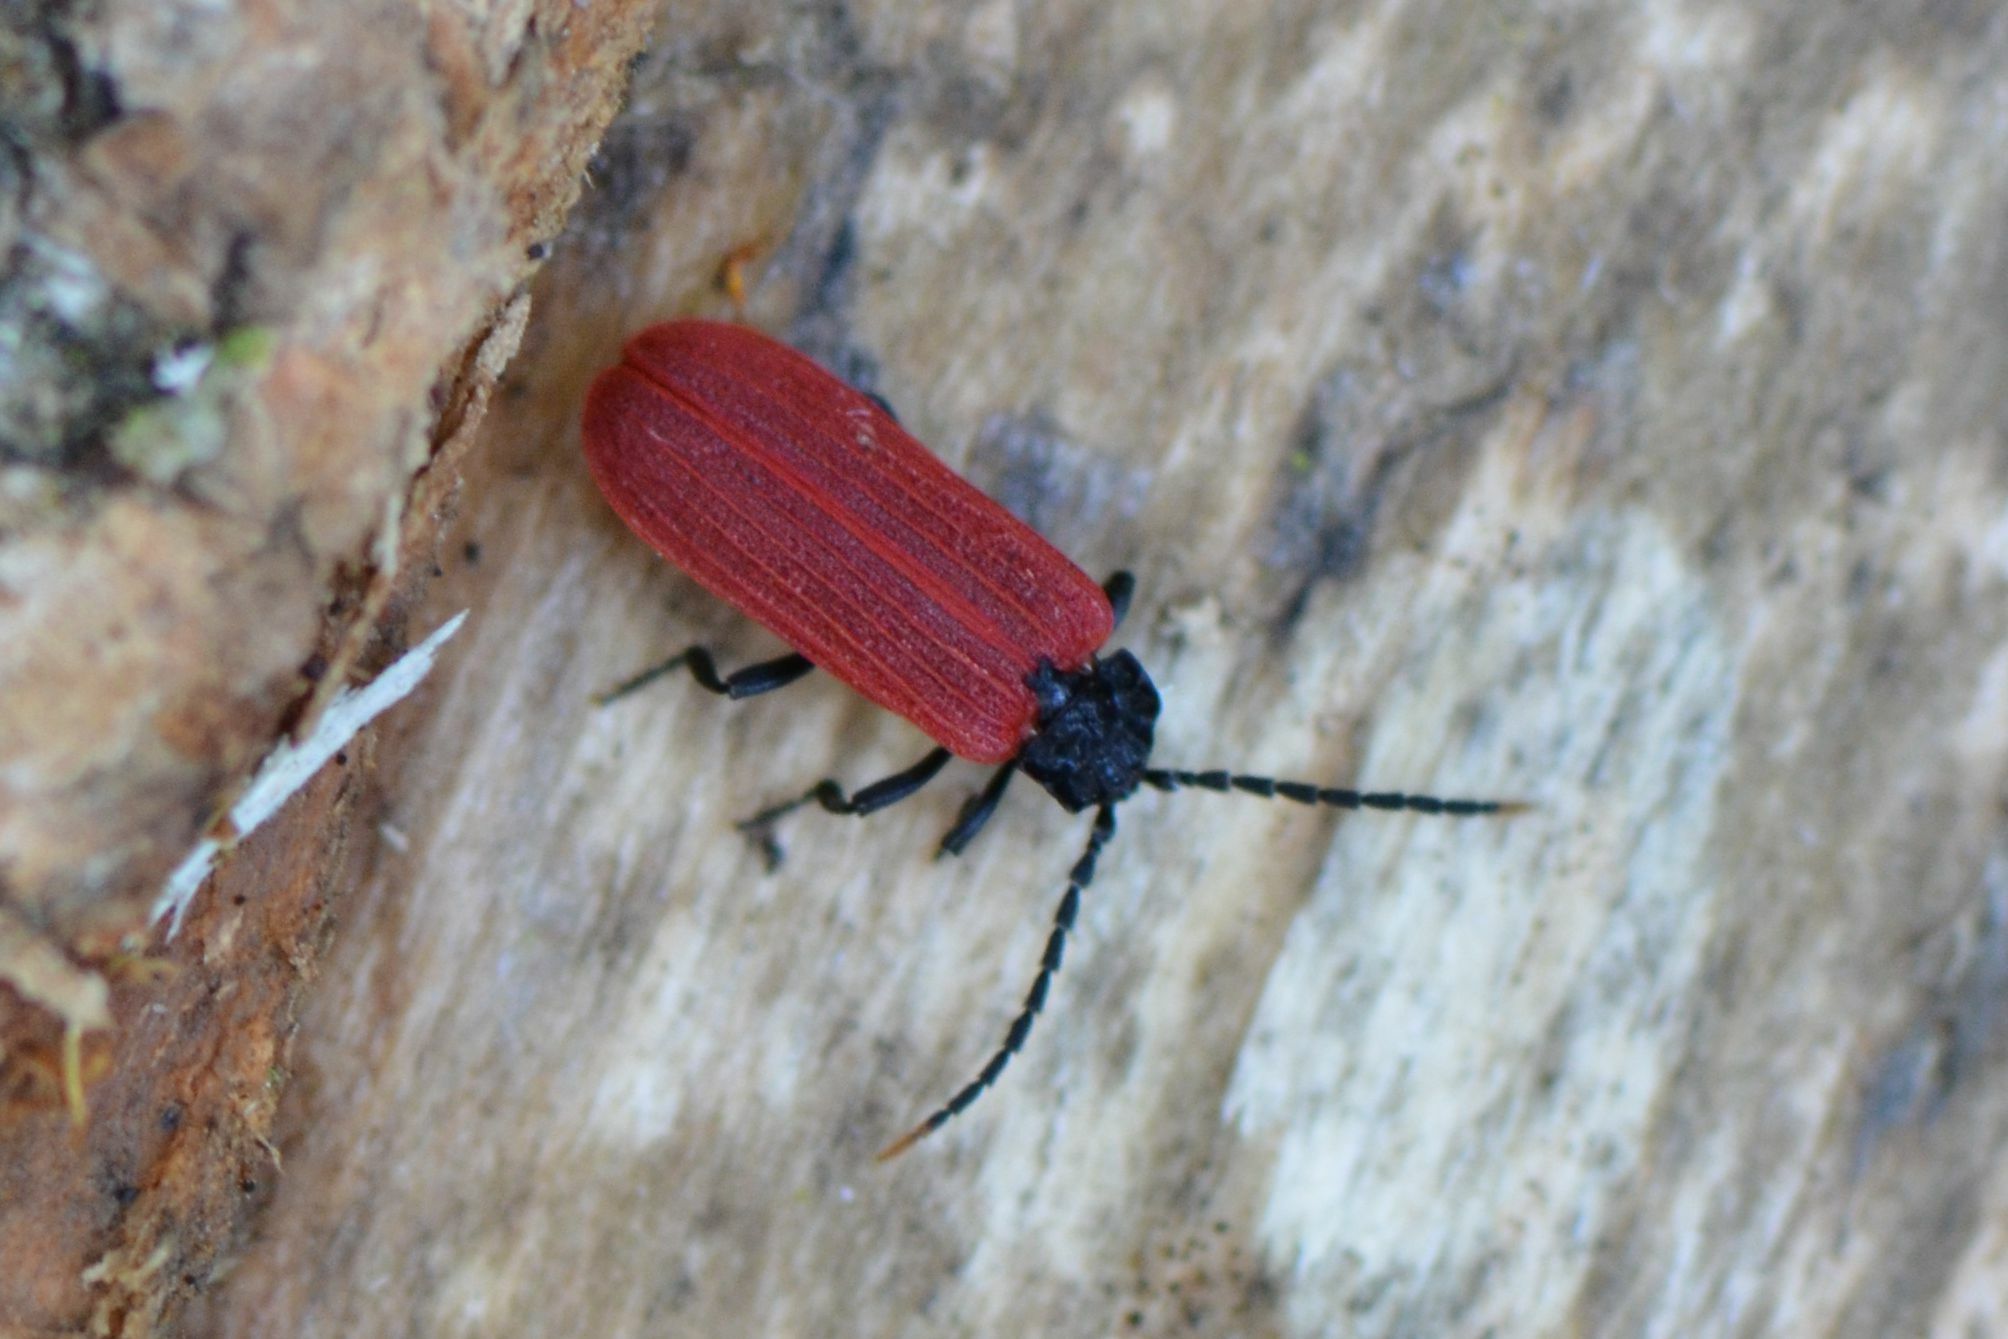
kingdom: Animalia
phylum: Arthropoda
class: Insecta
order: Coleoptera
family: Lycidae
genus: Platycis
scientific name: Platycis minutus
